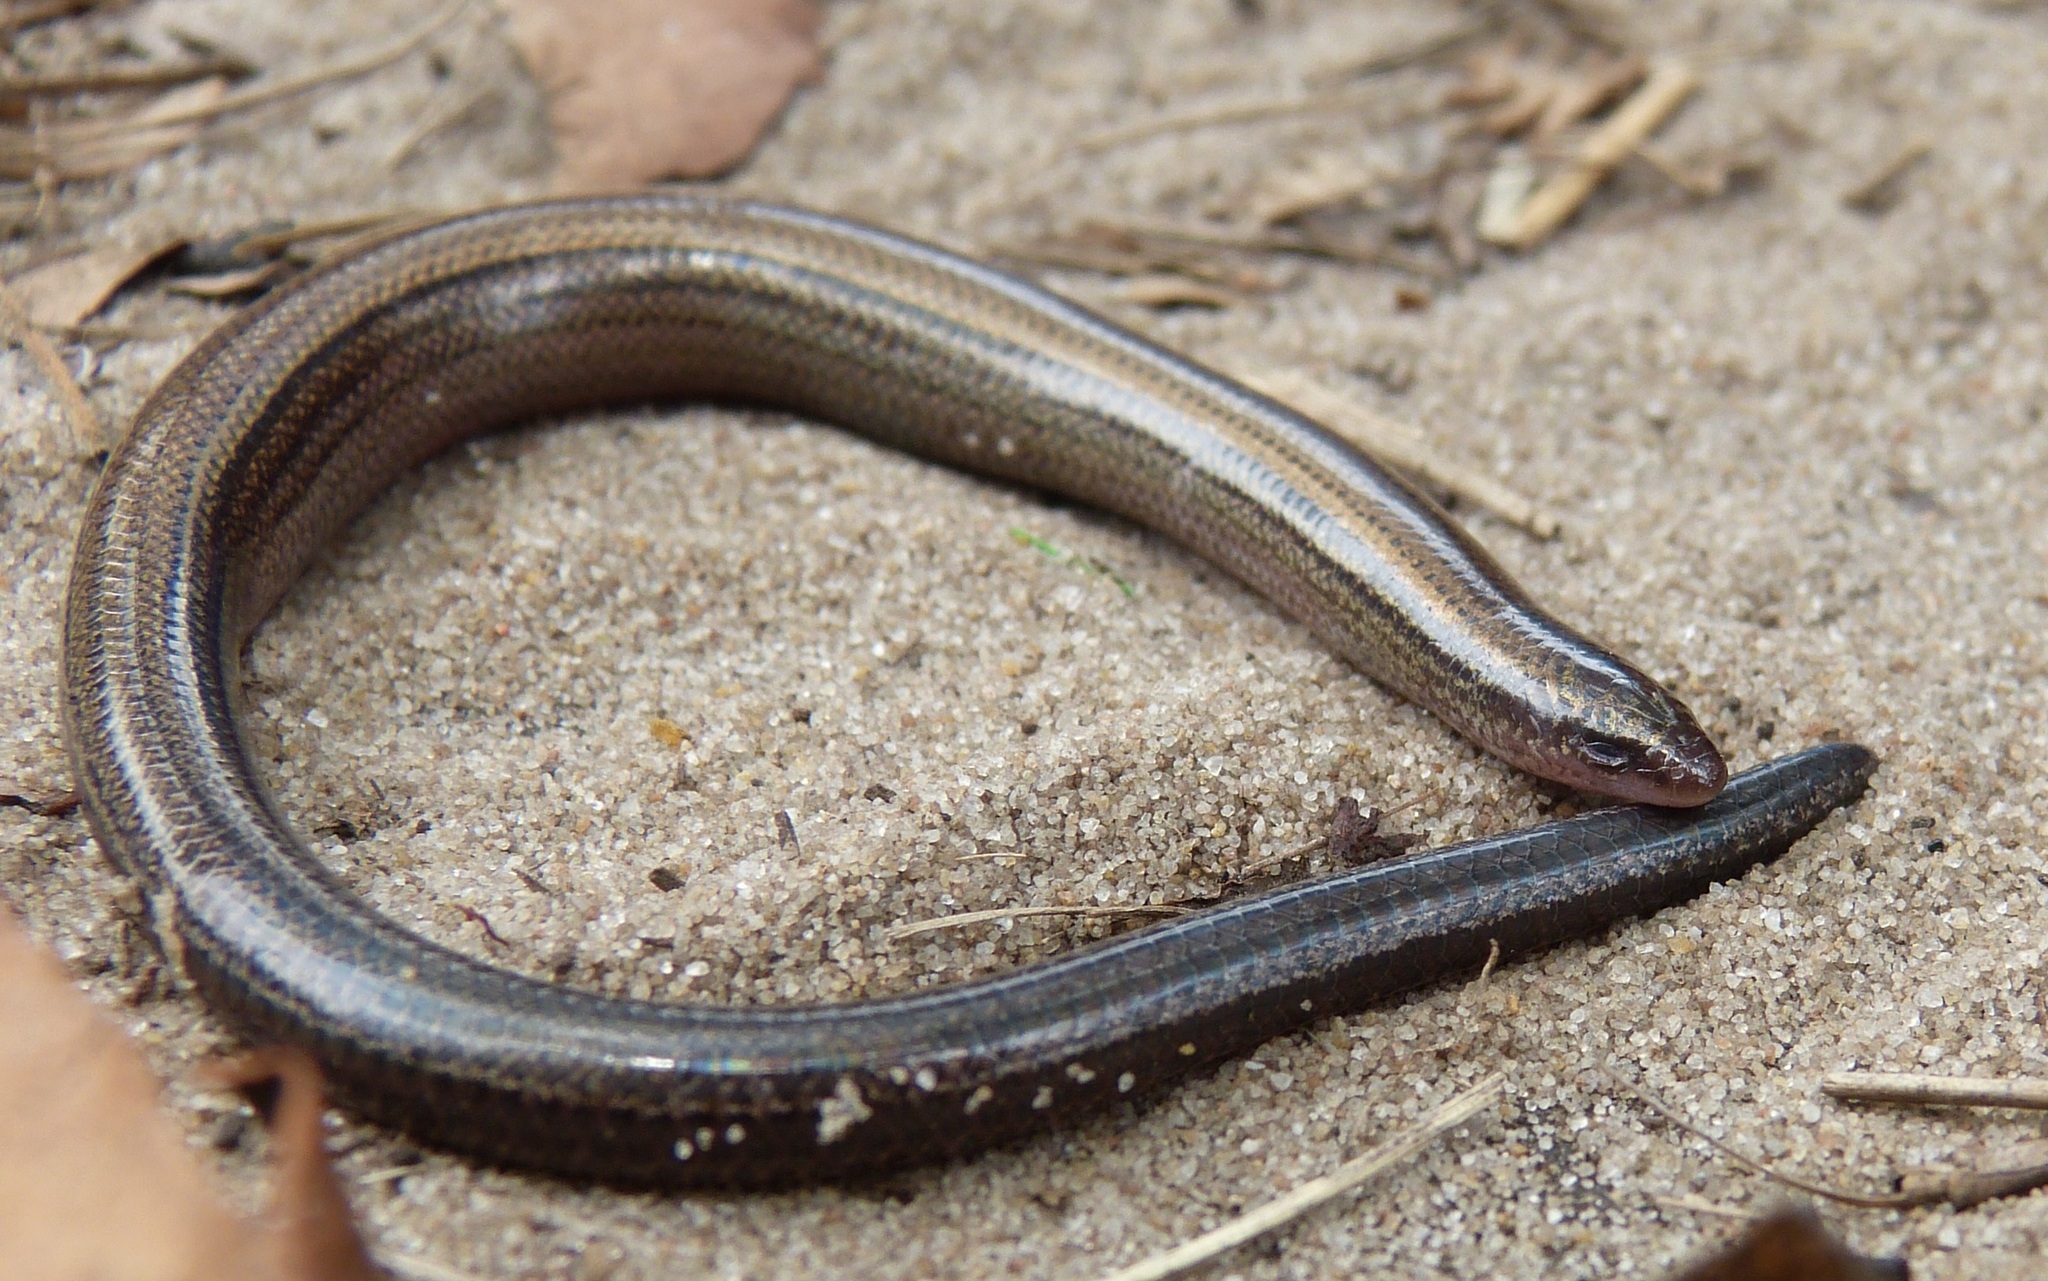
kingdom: Animalia
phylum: Chordata
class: Squamata
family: Scincidae
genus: Scelotes
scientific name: Scelotes fitzsimonsi
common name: Fitzsimons' dwarf burrowing skink
